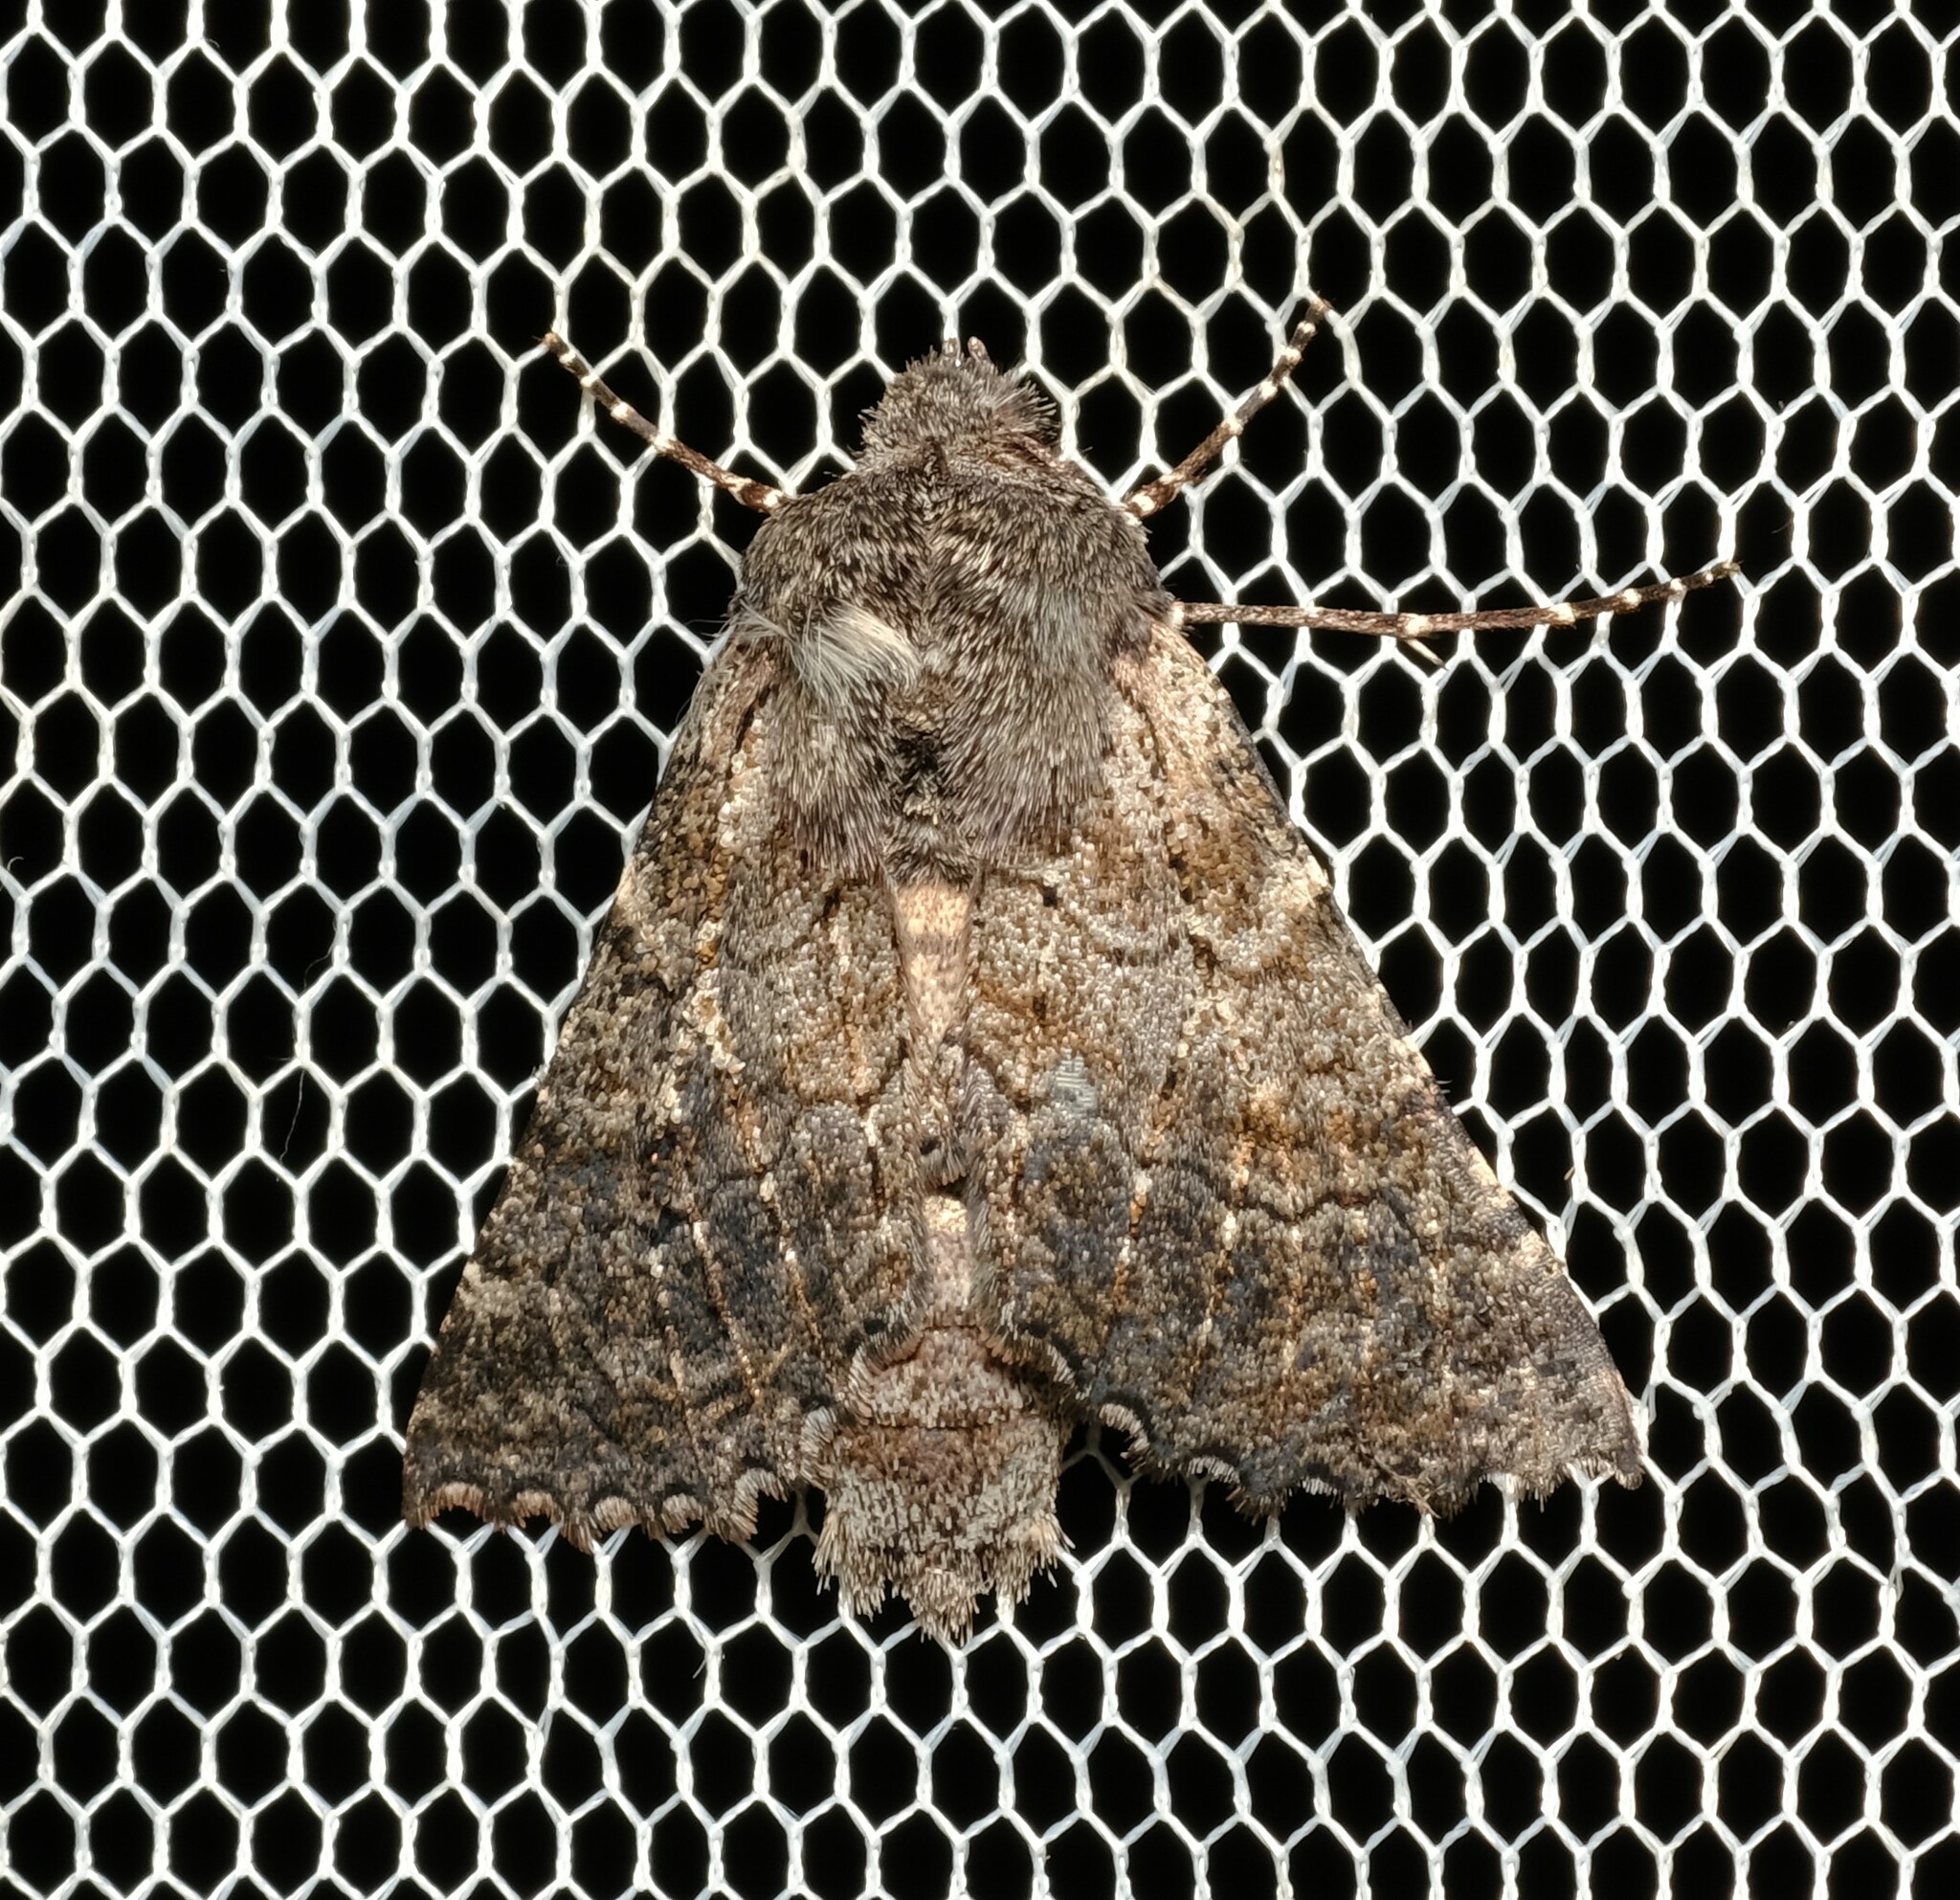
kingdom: Animalia
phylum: Arthropoda
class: Insecta
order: Lepidoptera
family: Geometridae
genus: Dinophalus
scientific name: Dinophalus
